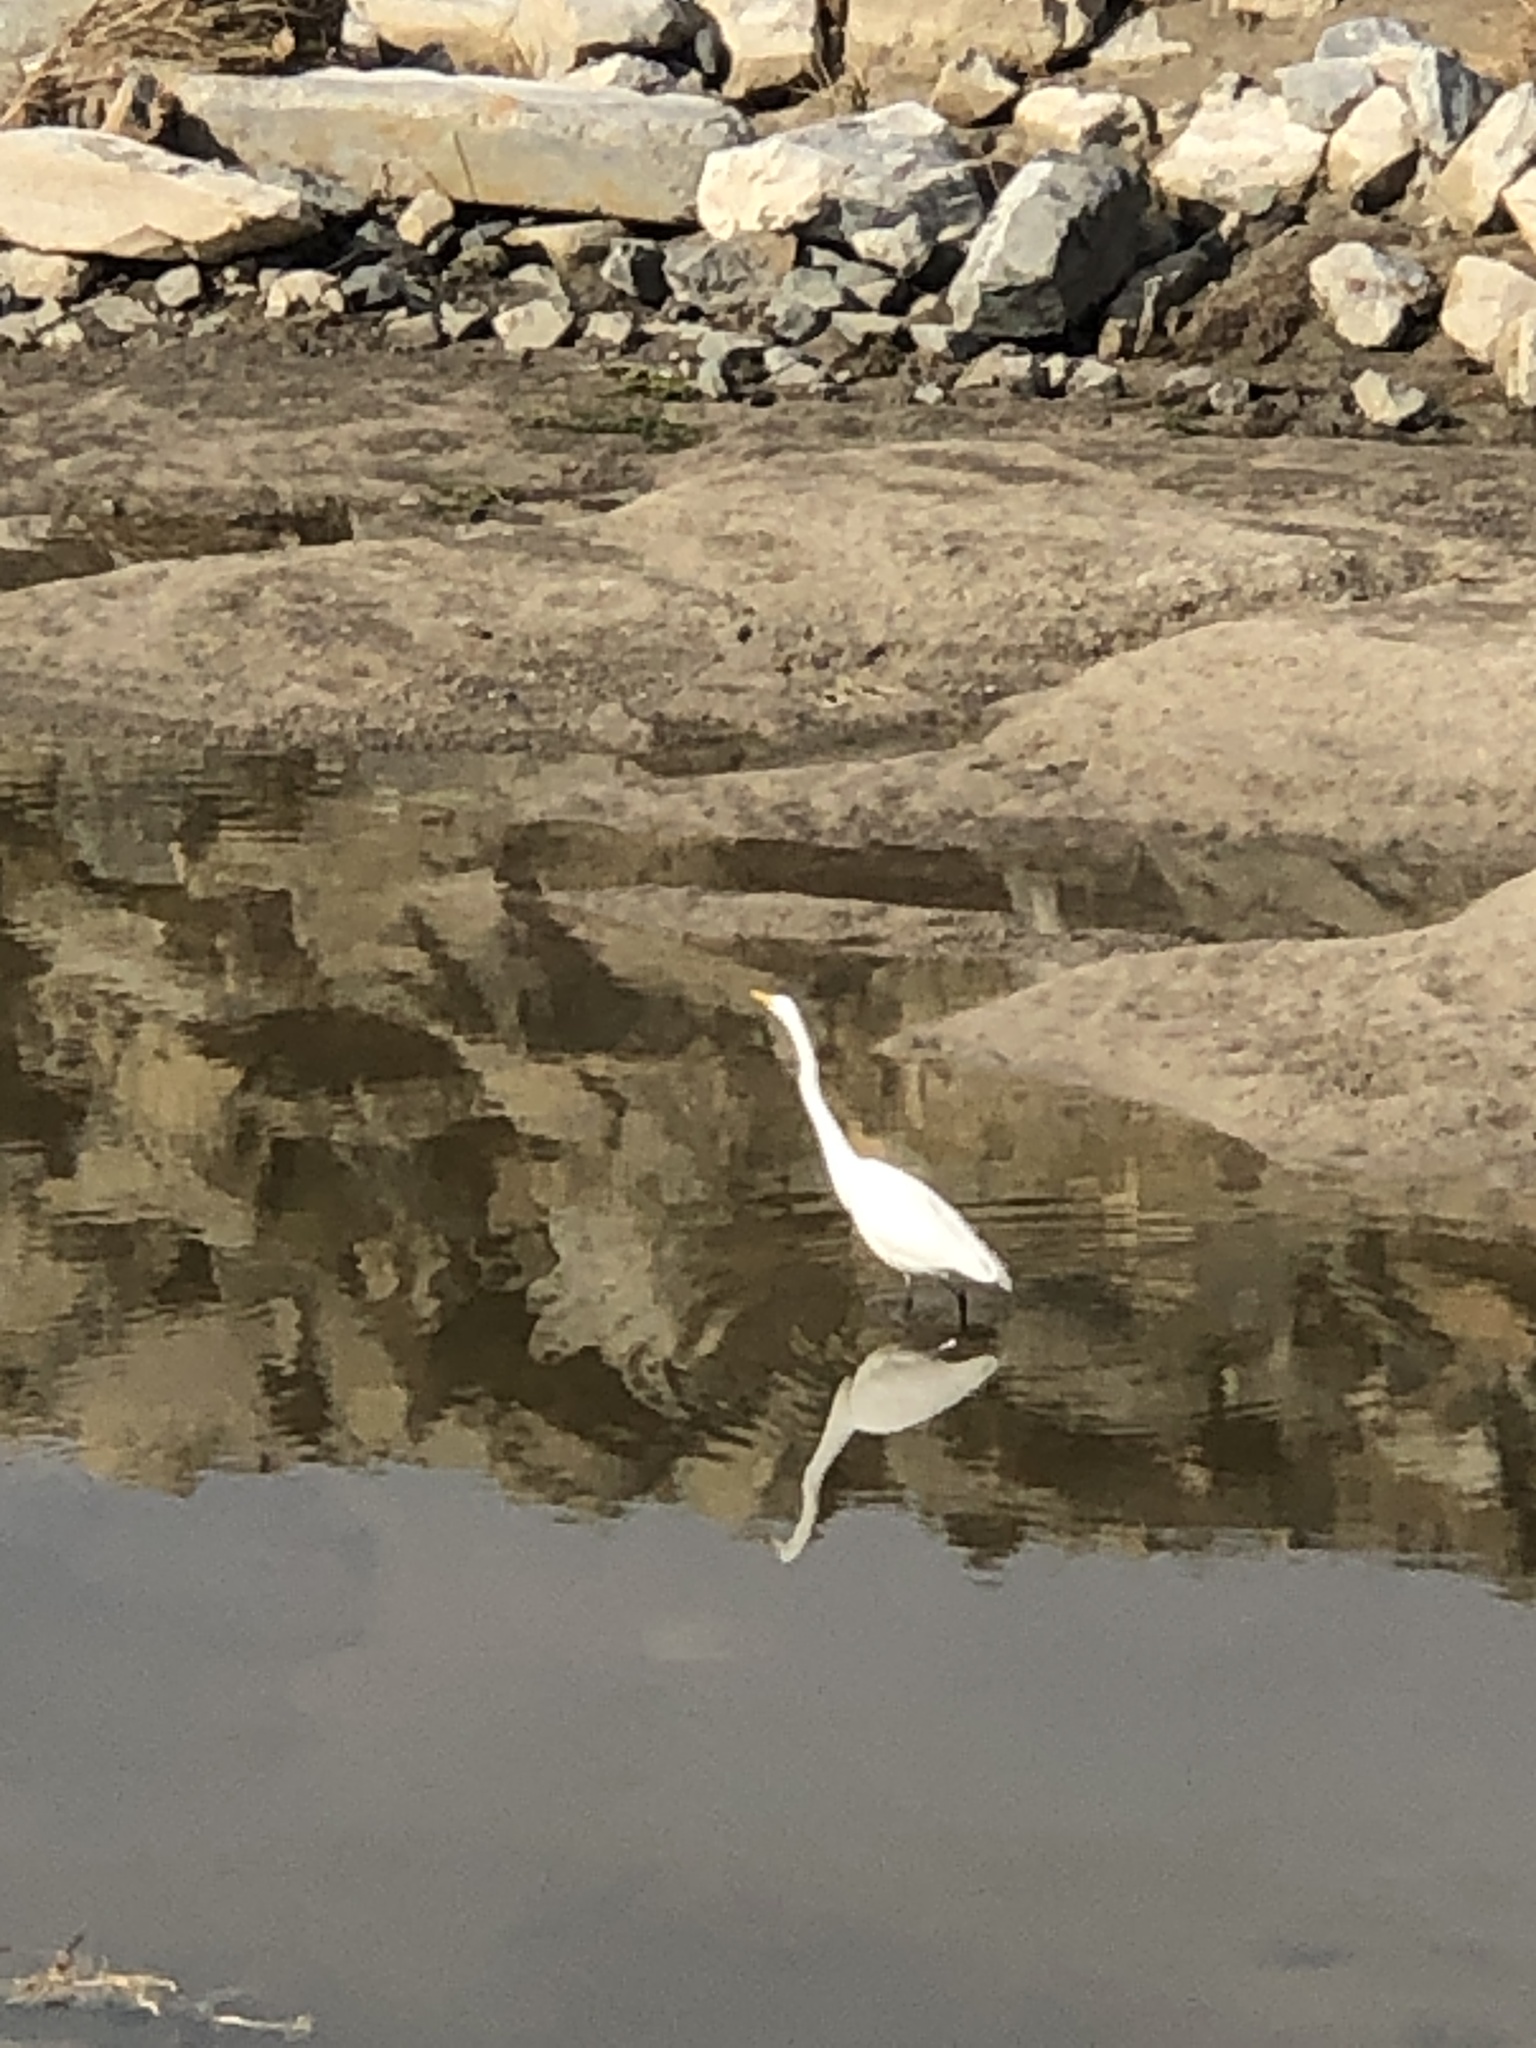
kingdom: Animalia
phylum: Chordata
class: Aves
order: Pelecaniformes
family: Ardeidae
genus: Ardea
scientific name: Ardea alba
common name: Great egret
